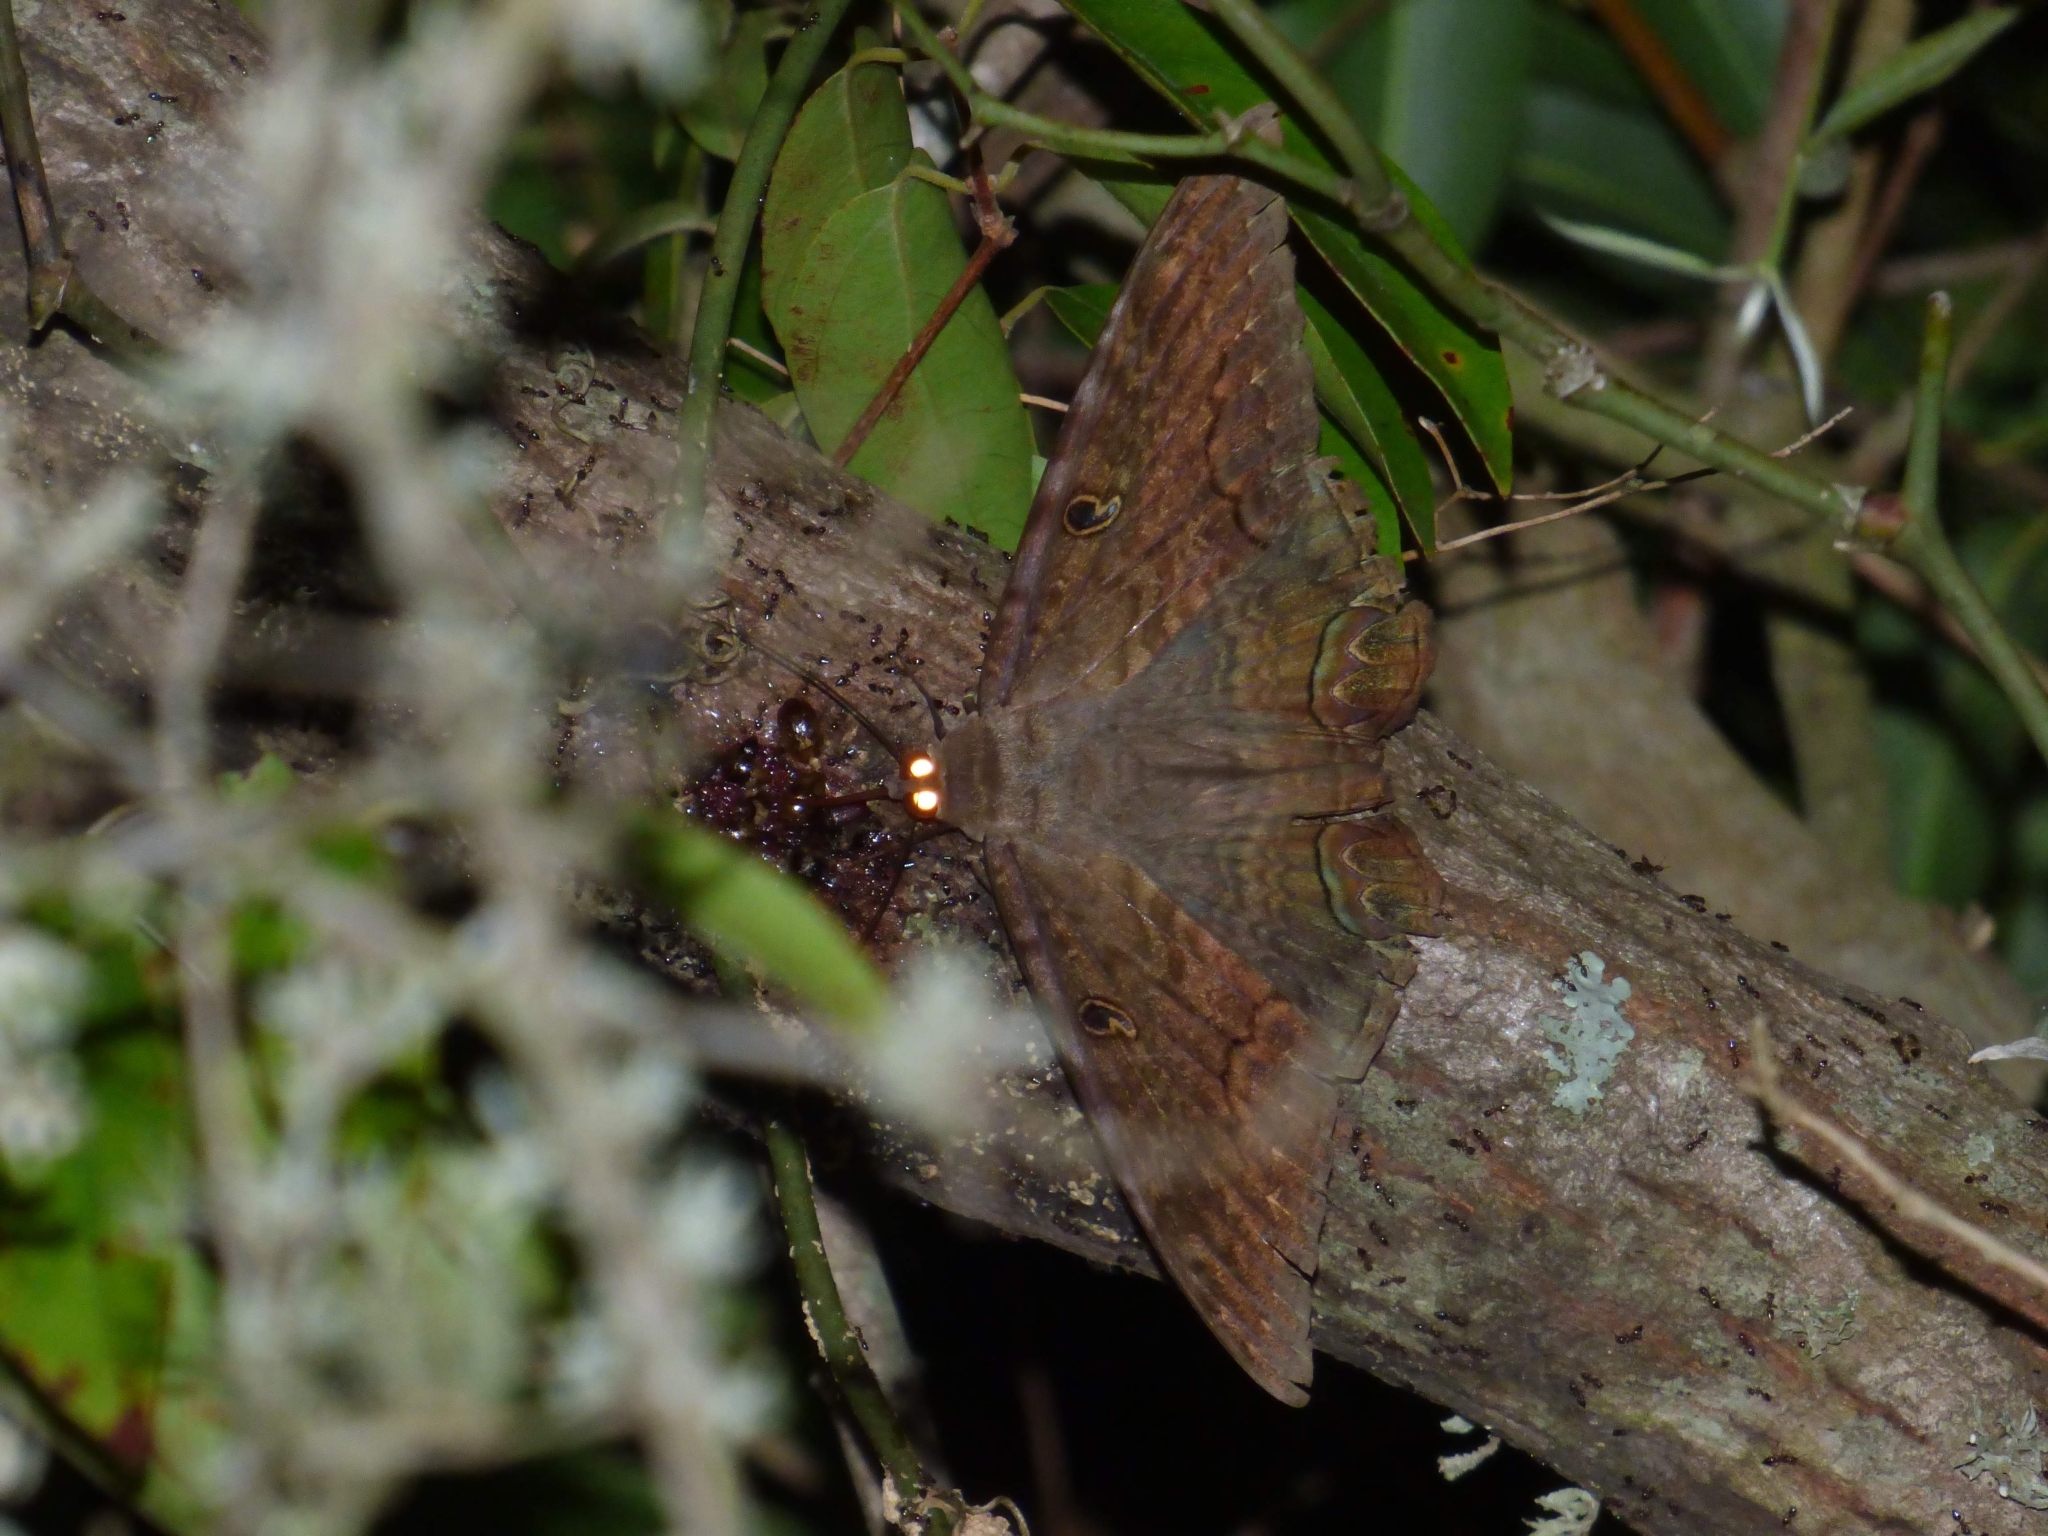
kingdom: Animalia
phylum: Arthropoda
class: Insecta
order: Lepidoptera
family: Erebidae
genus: Ascalapha
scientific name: Ascalapha odorata
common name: Black witch
